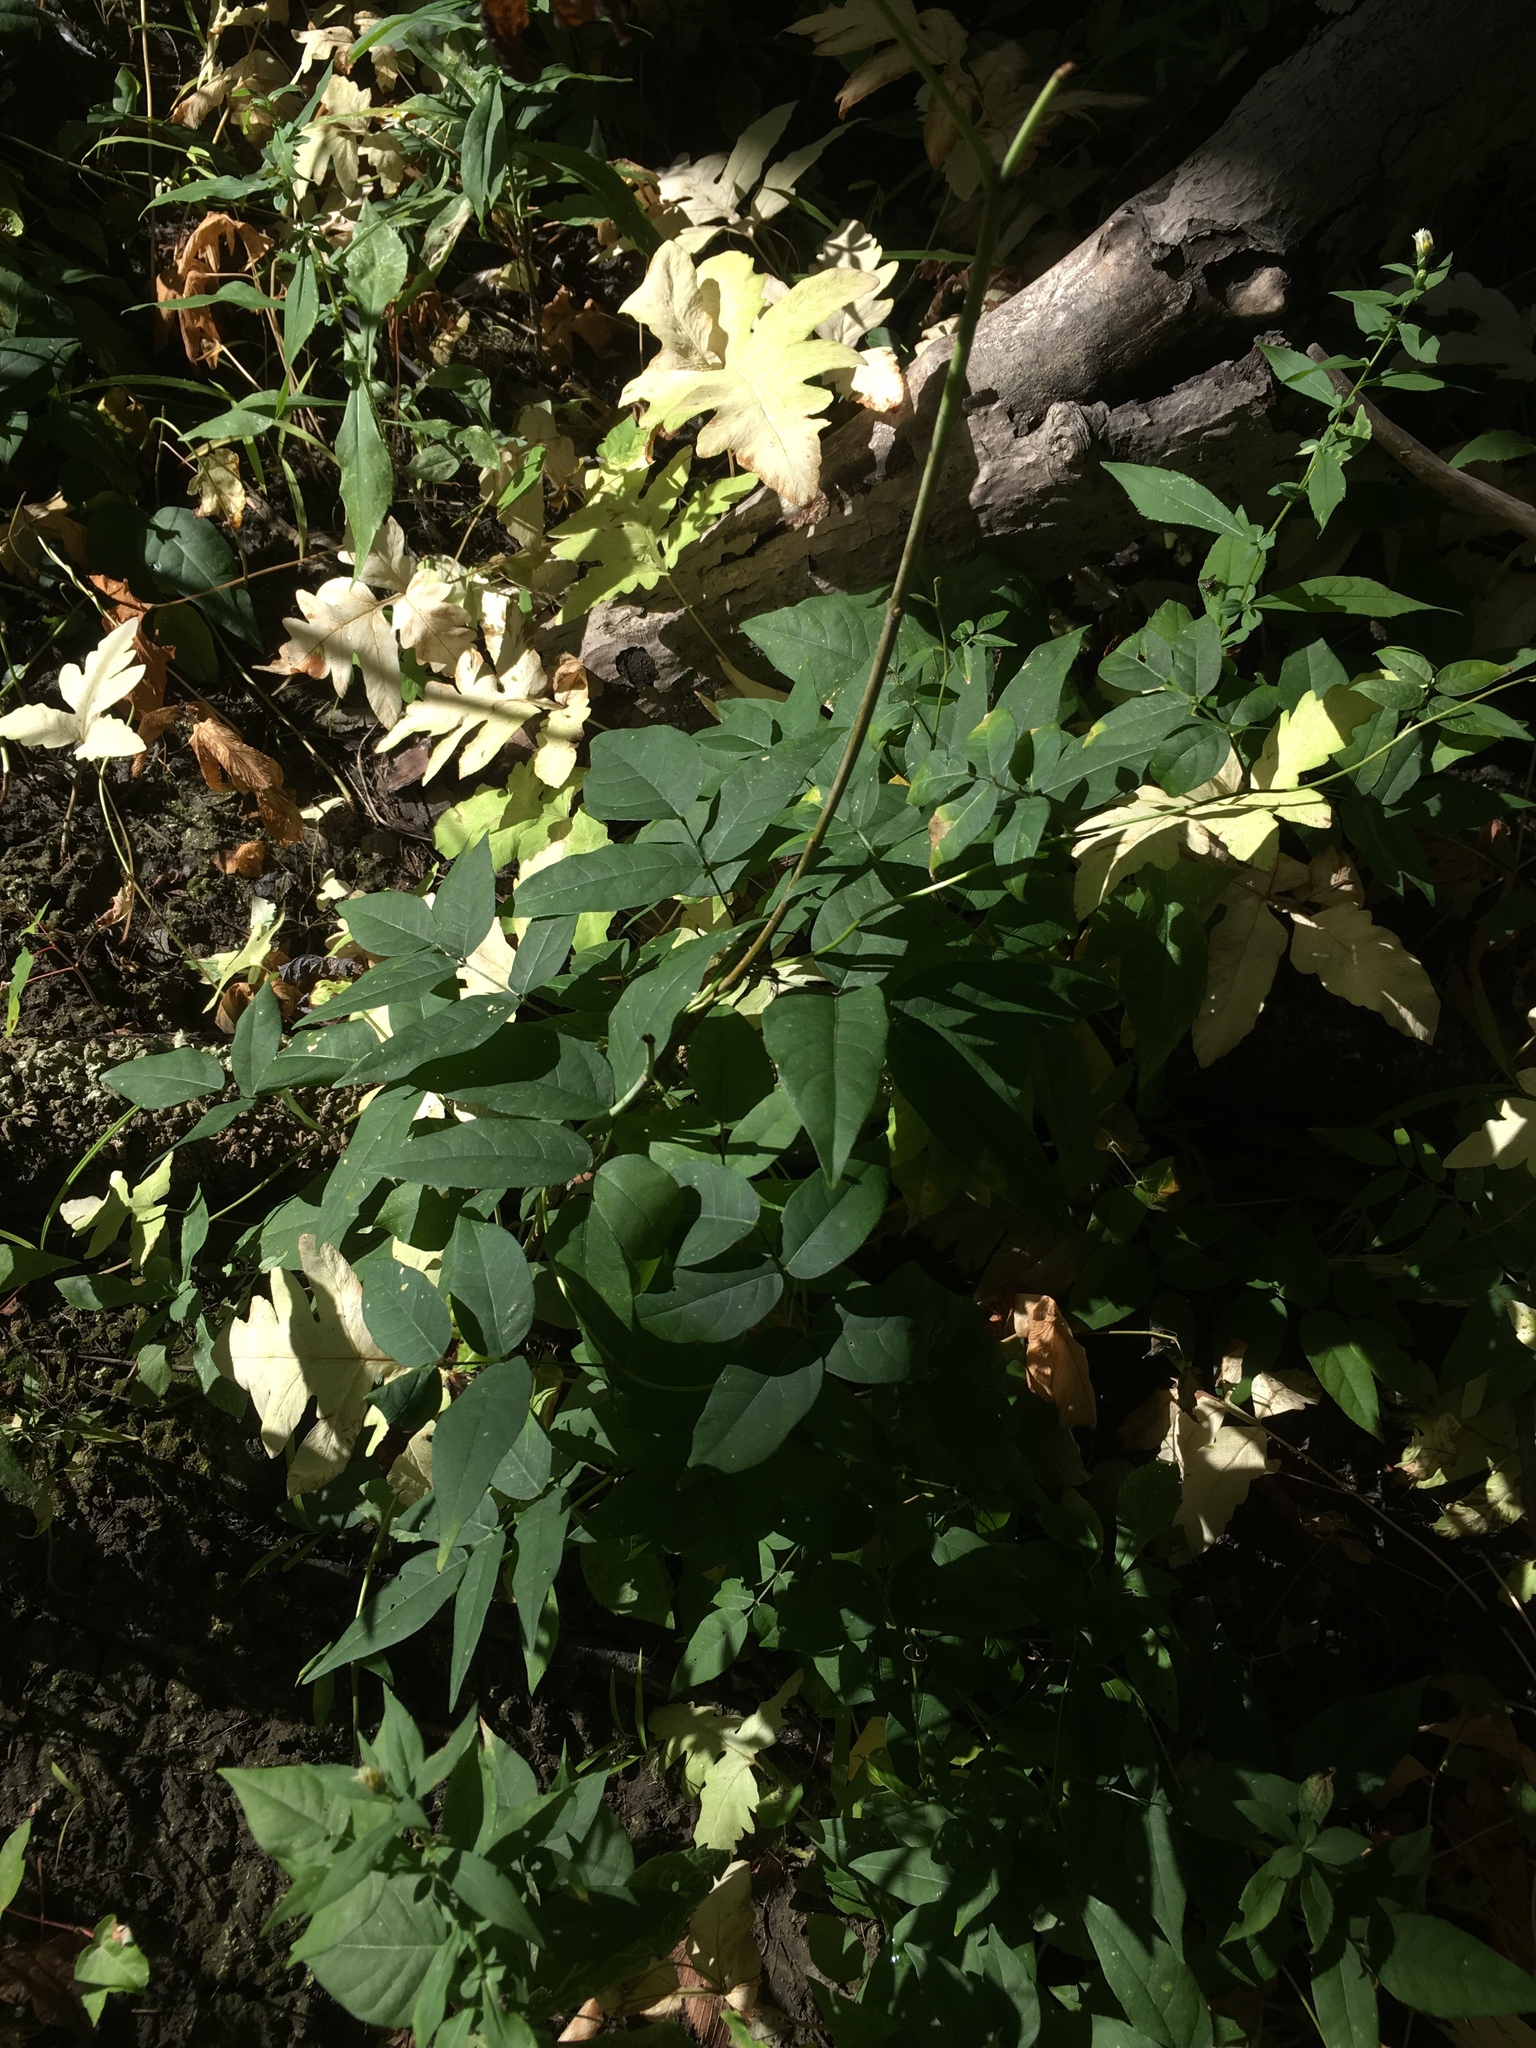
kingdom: Plantae
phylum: Tracheophyta
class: Magnoliopsida
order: Fabales
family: Fabaceae
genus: Apios
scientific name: Apios americana
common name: American potato-bean
